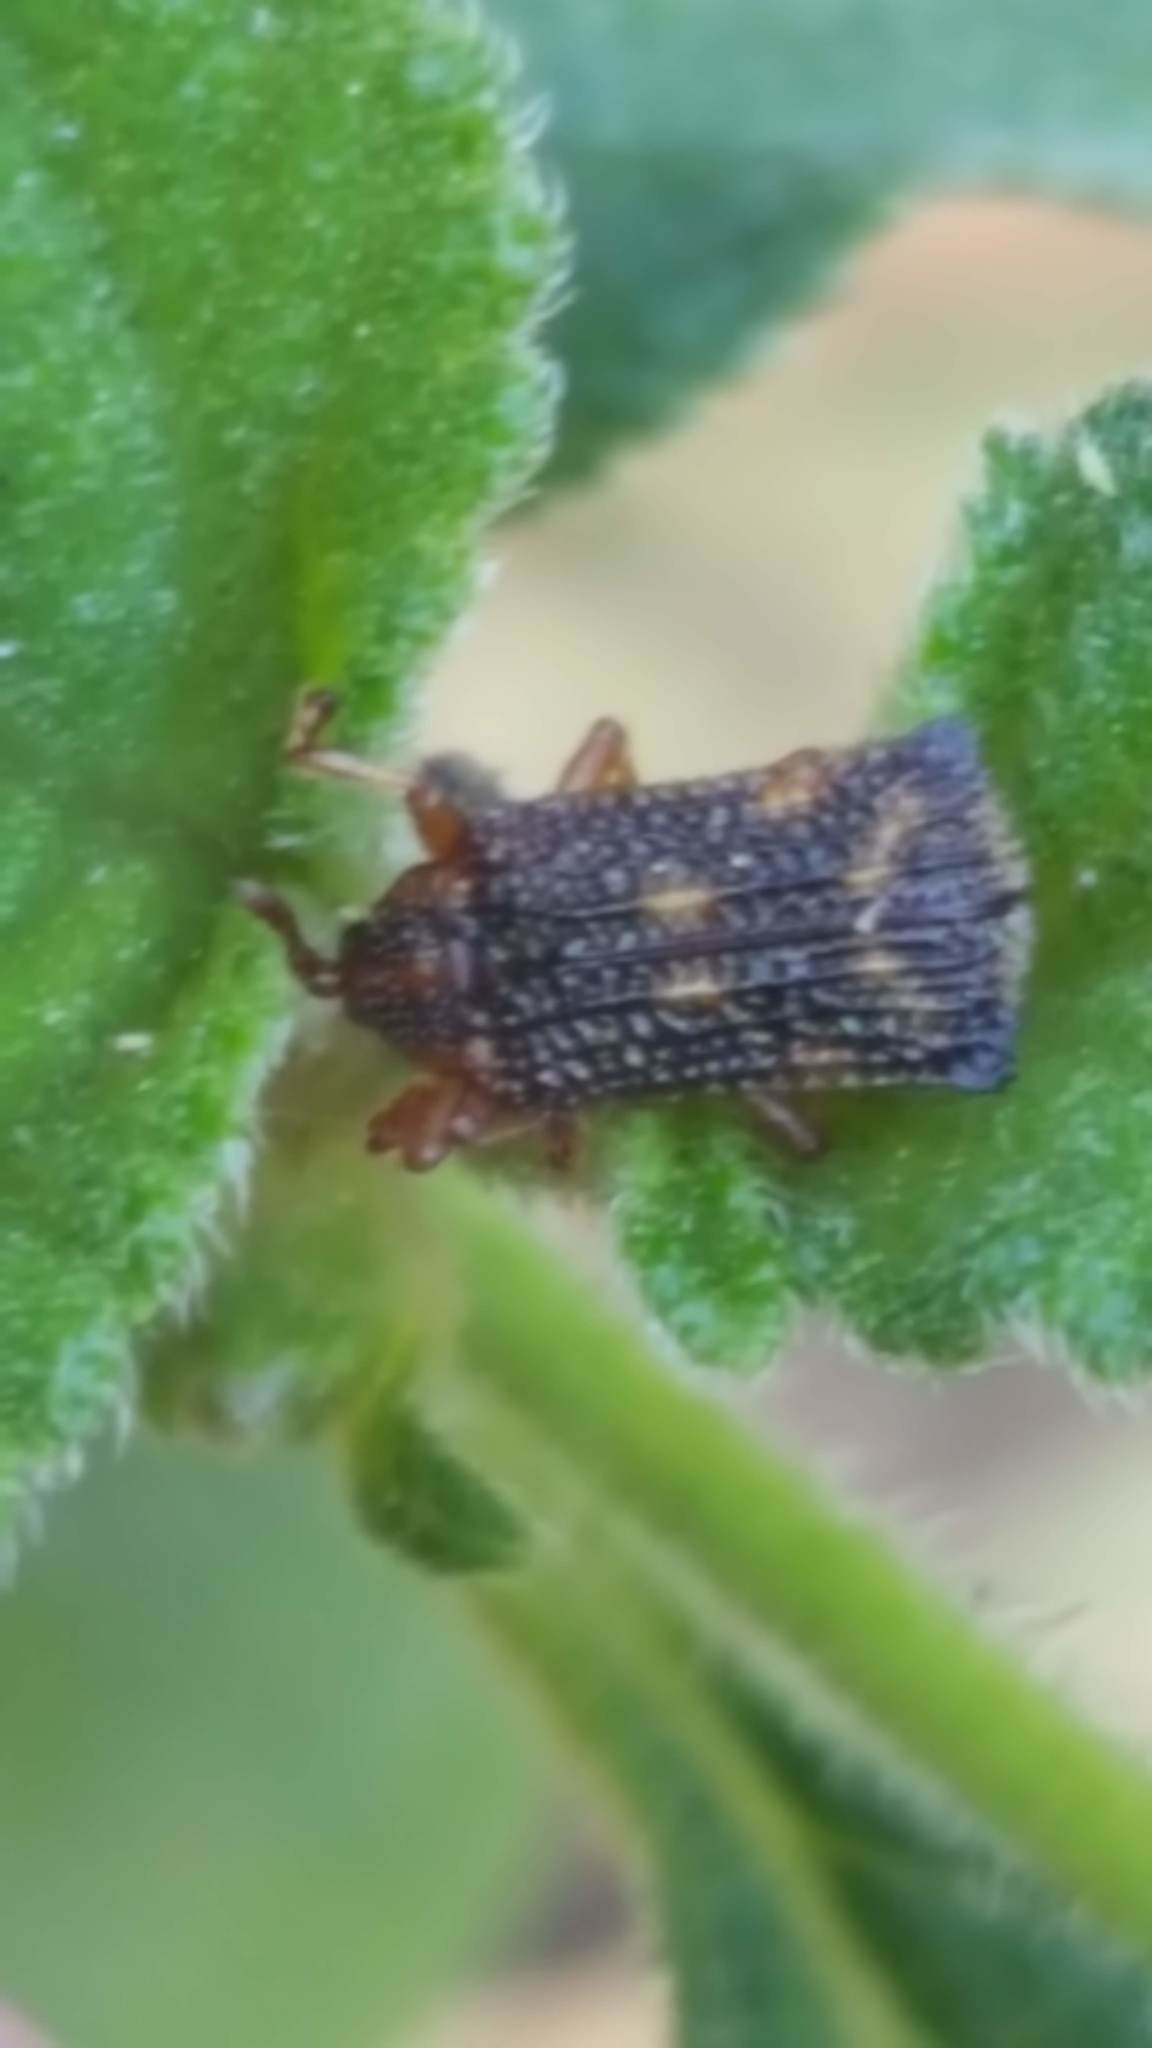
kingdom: Animalia
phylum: Arthropoda
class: Insecta
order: Coleoptera
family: Chrysomelidae
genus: Uroplata
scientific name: Uroplata girardi
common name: Lantana leafminer
